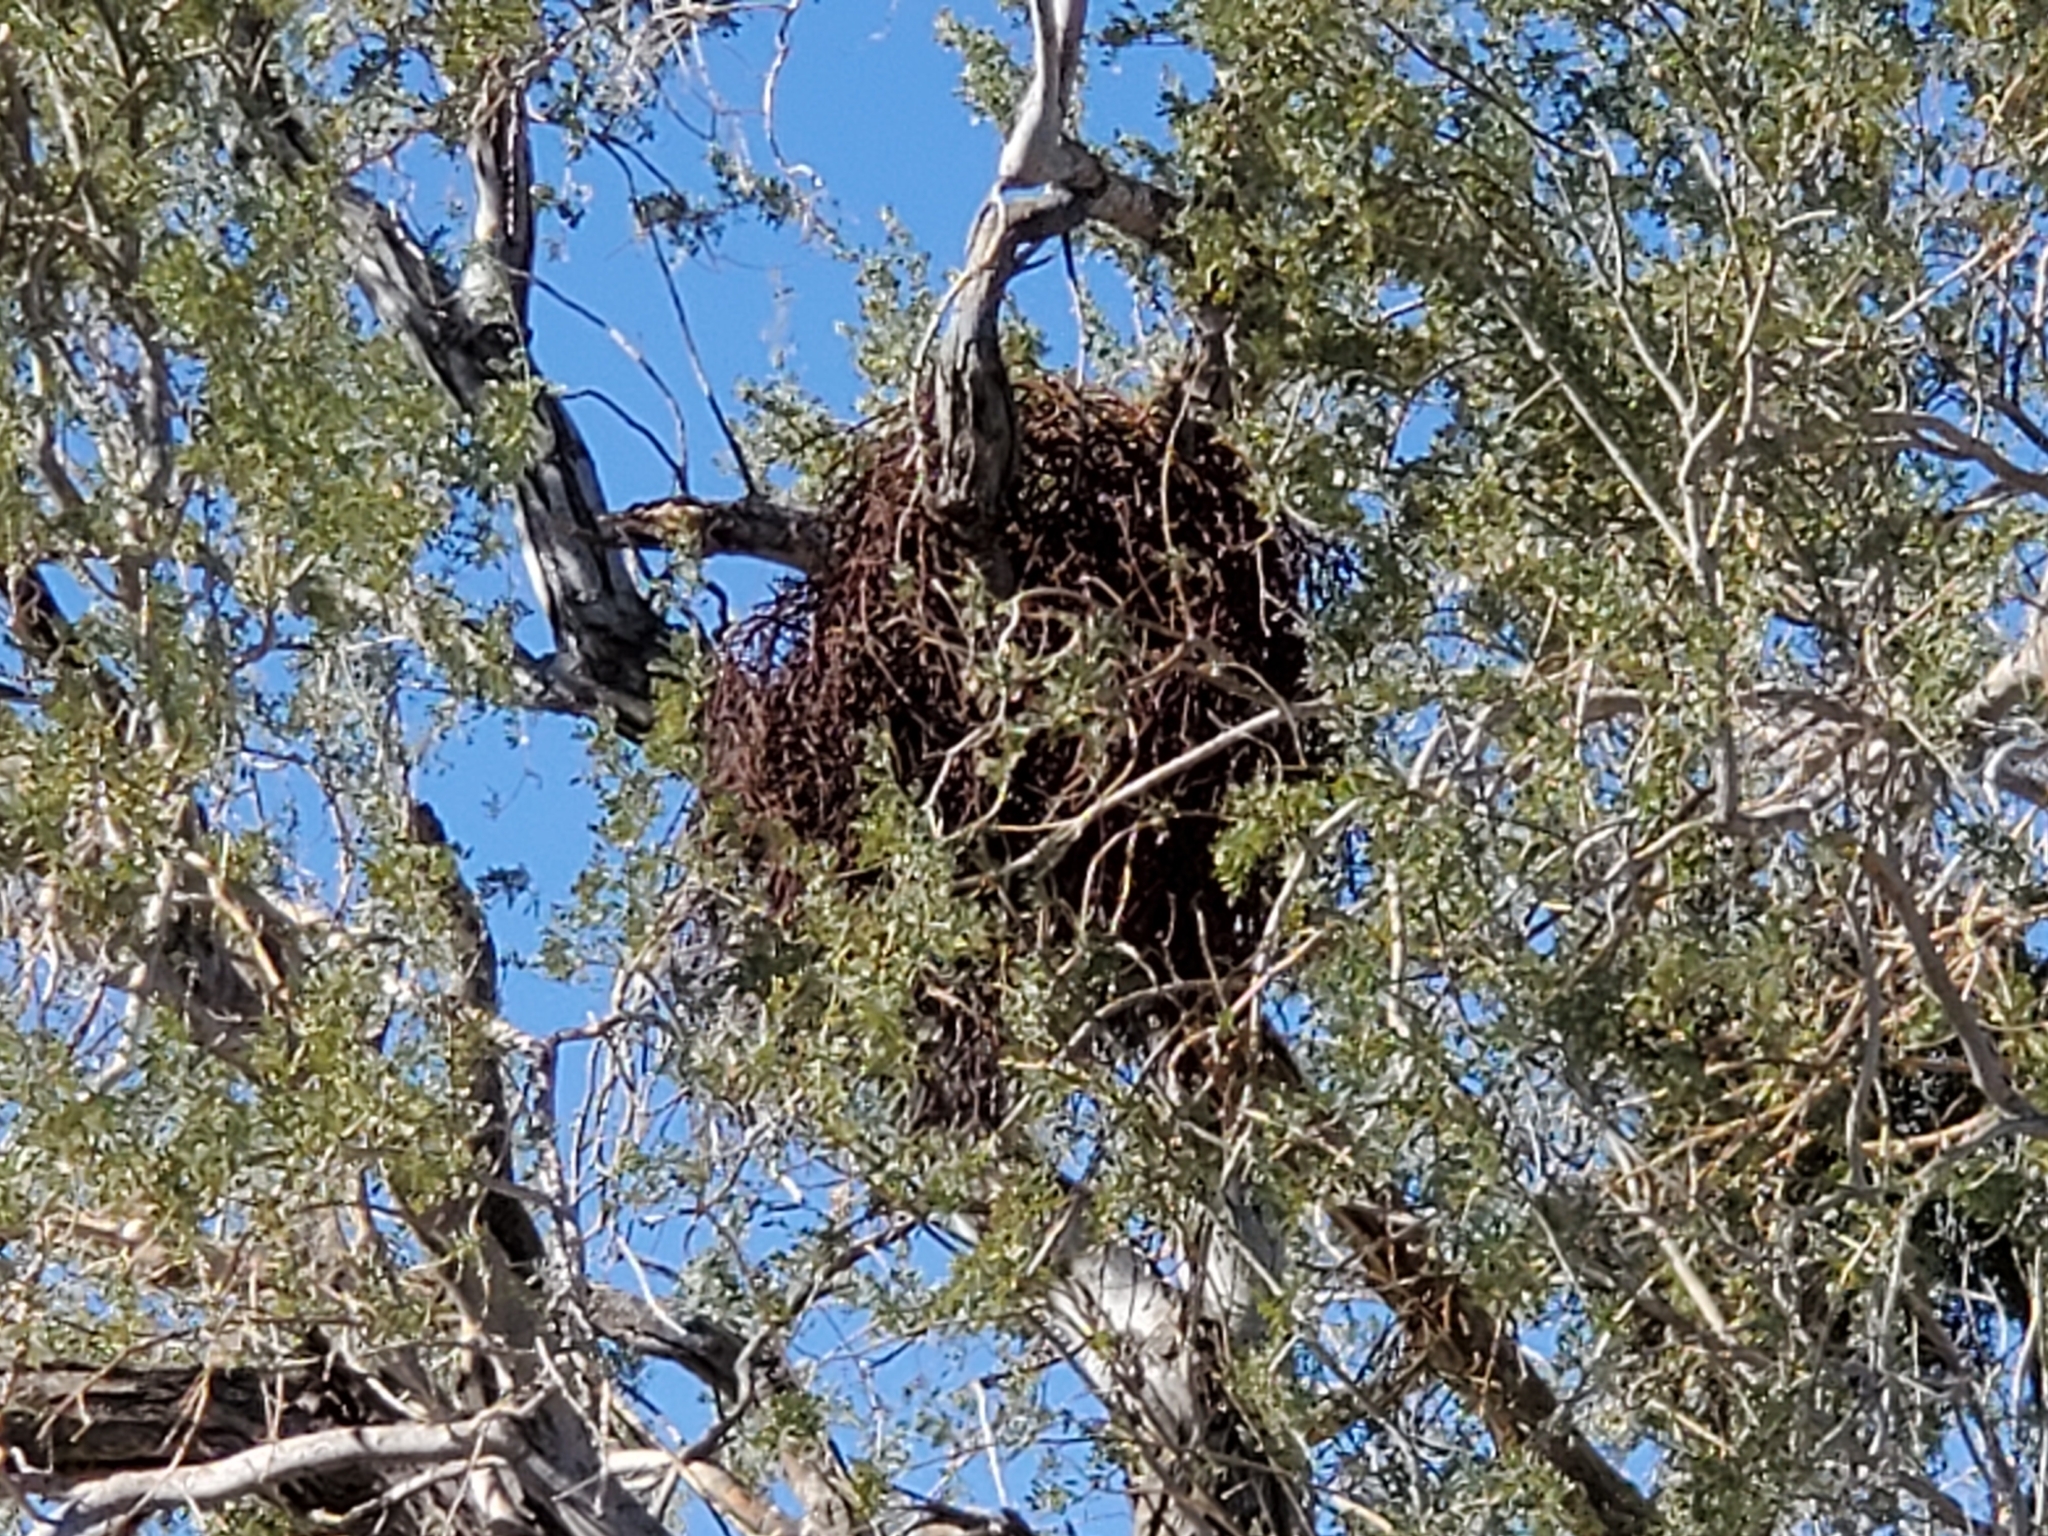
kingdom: Plantae
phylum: Tracheophyta
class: Magnoliopsida
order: Santalales
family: Viscaceae
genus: Phoradendron
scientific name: Phoradendron californicum
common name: Acacia mistletoe
